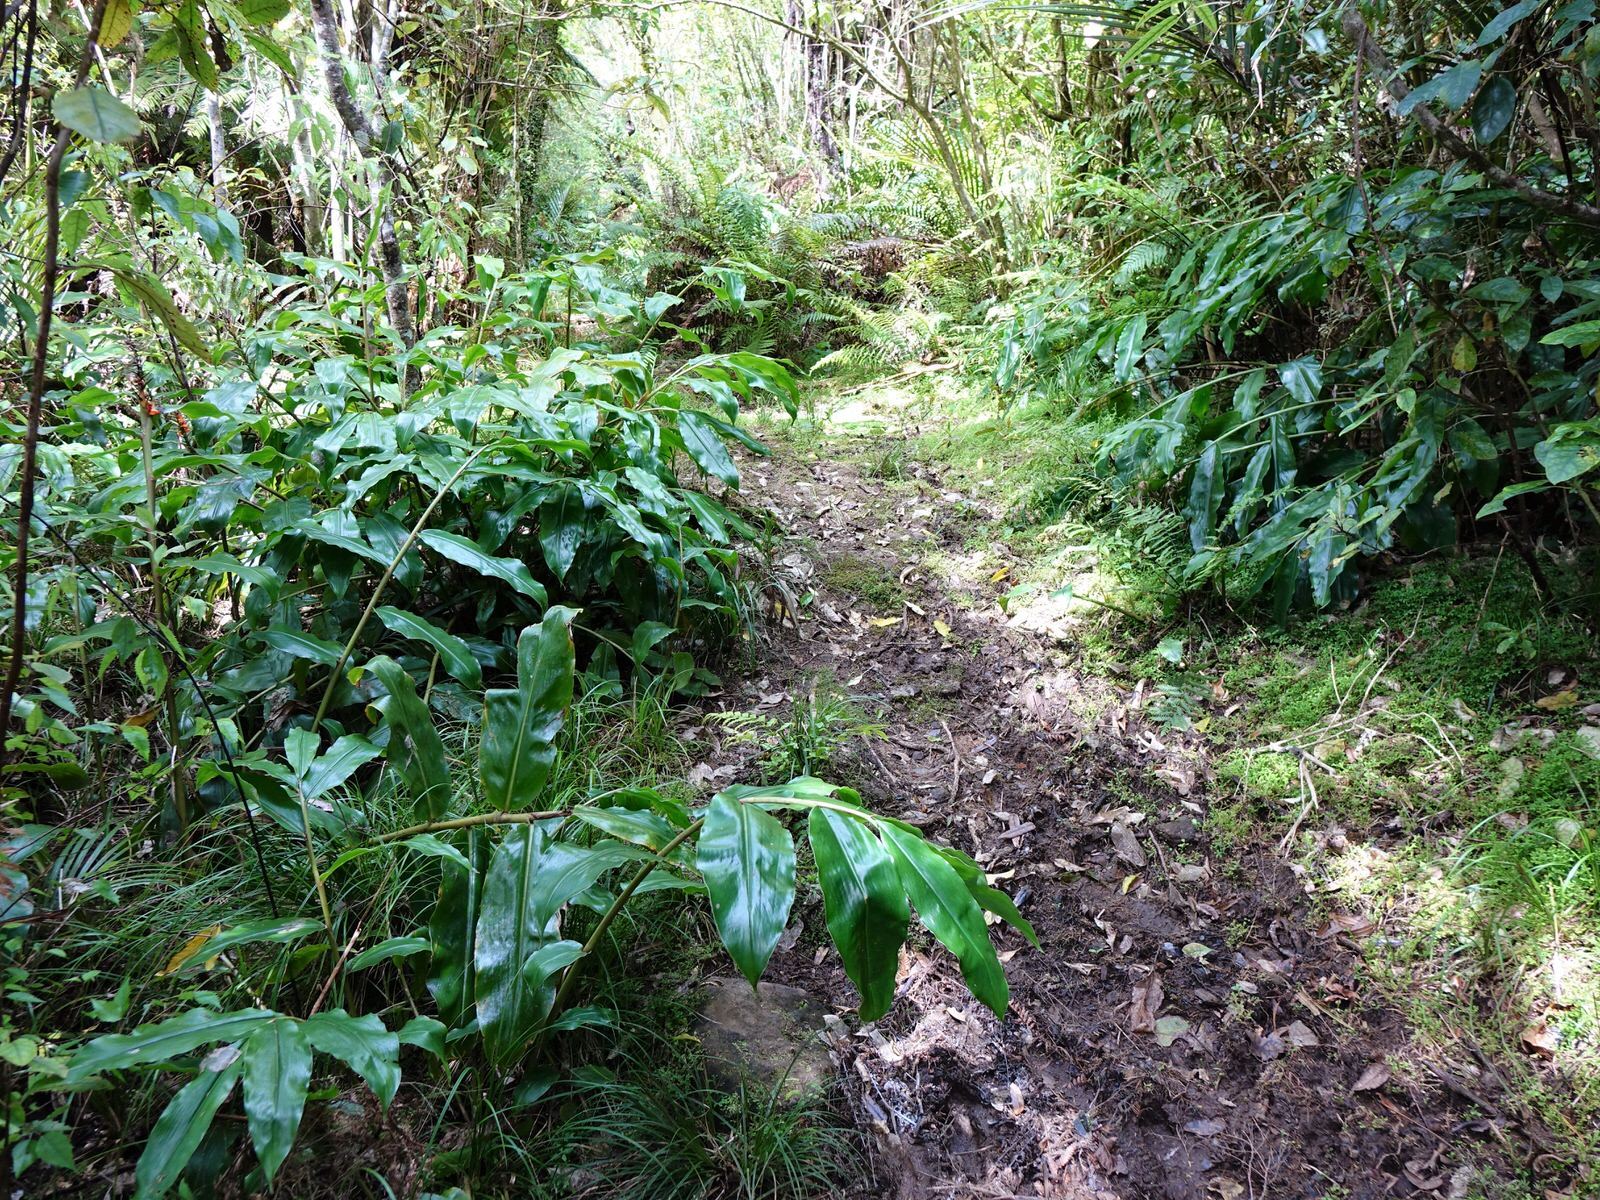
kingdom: Plantae
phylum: Tracheophyta
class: Liliopsida
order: Zingiberales
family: Zingiberaceae
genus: Hedychium
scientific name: Hedychium gardnerianum
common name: Himalayan ginger
